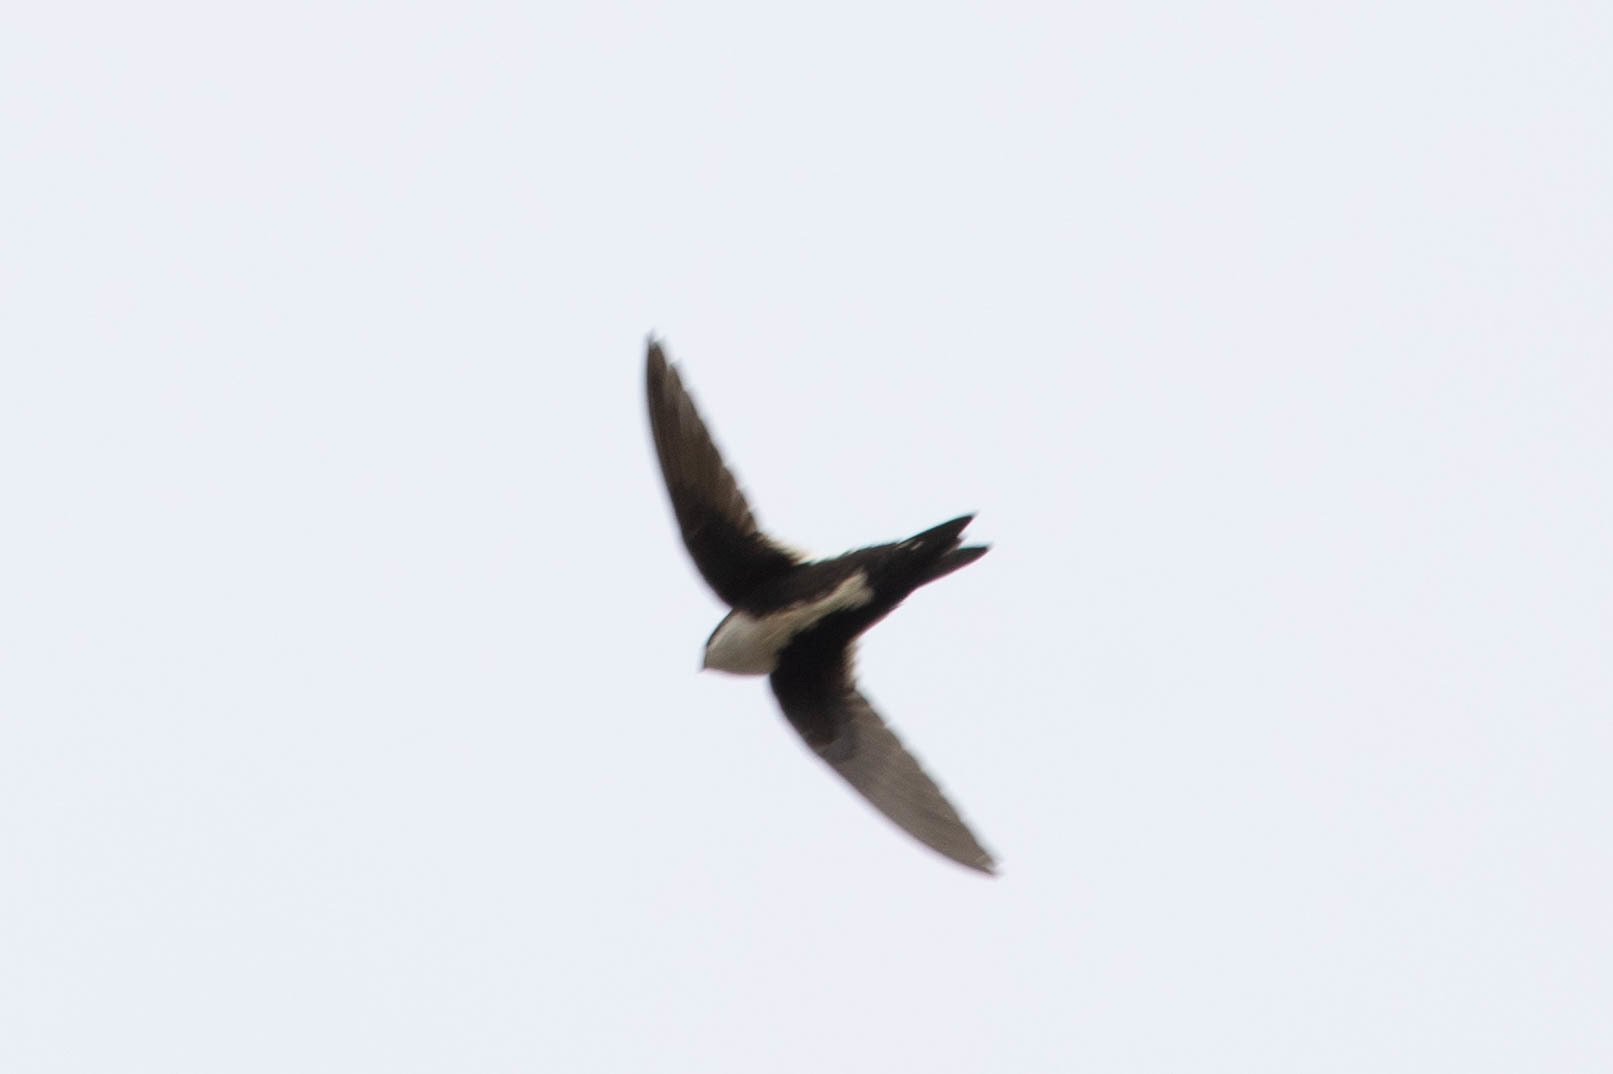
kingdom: Animalia
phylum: Chordata
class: Aves
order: Apodiformes
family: Apodidae
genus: Aeronautes
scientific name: Aeronautes saxatalis
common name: White-throated swift
